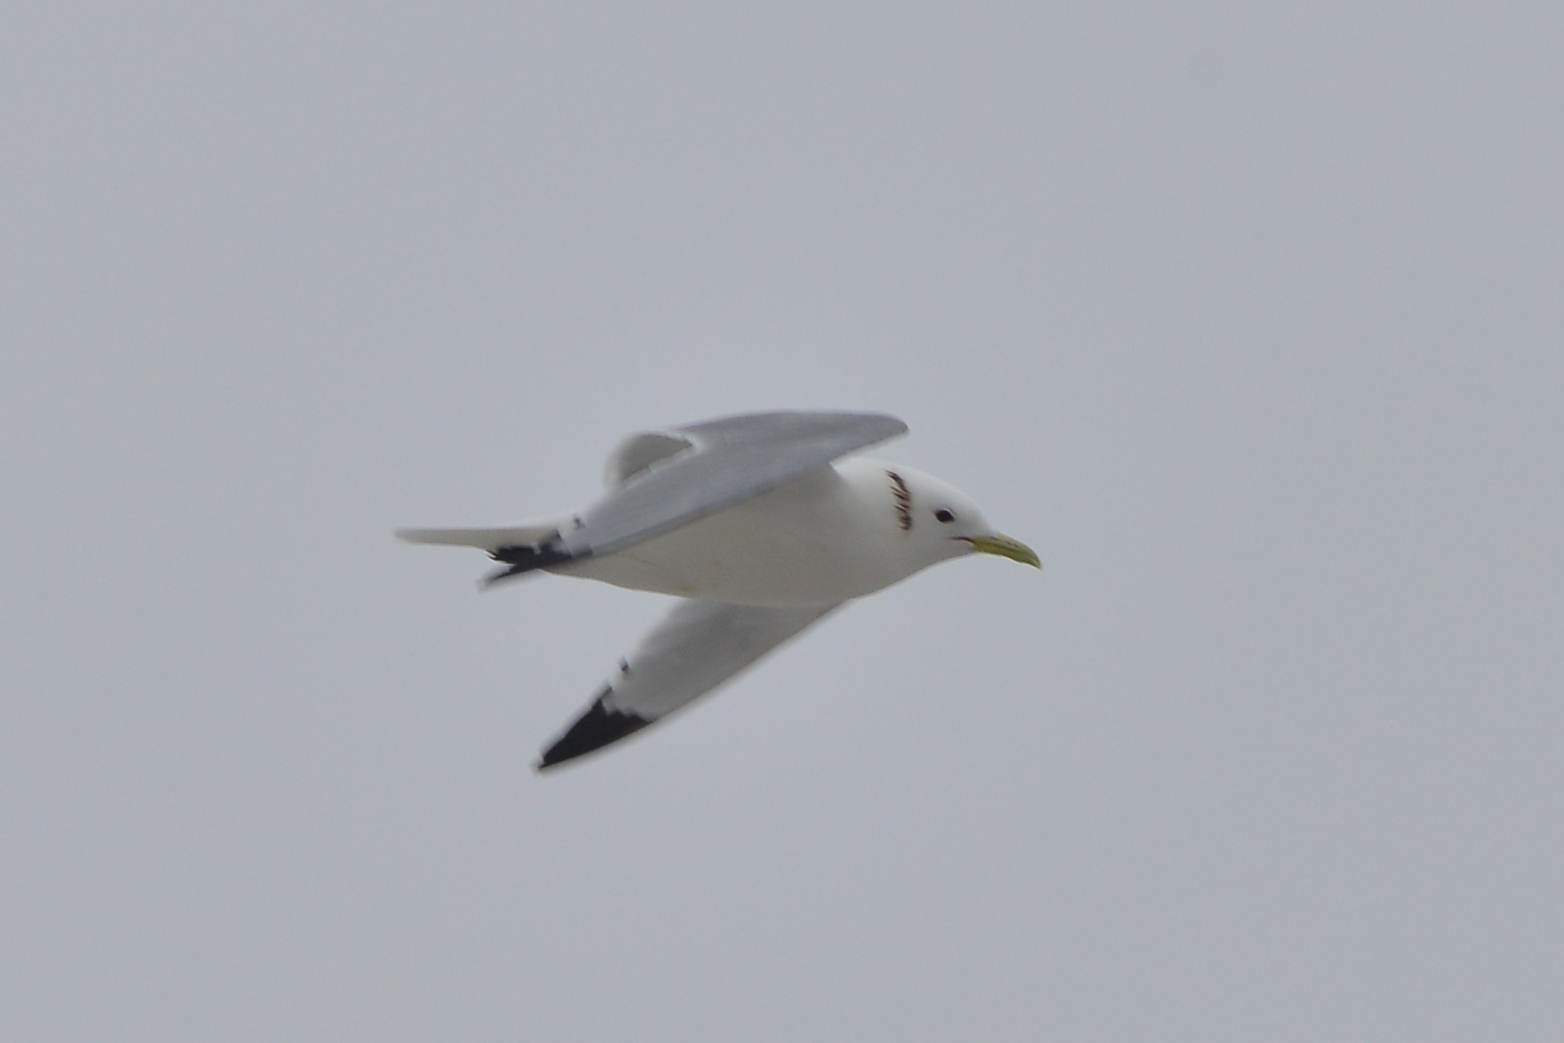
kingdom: Animalia
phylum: Chordata
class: Aves
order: Charadriiformes
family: Laridae
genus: Rissa
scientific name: Rissa tridactyla
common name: Black-legged kittiwake
